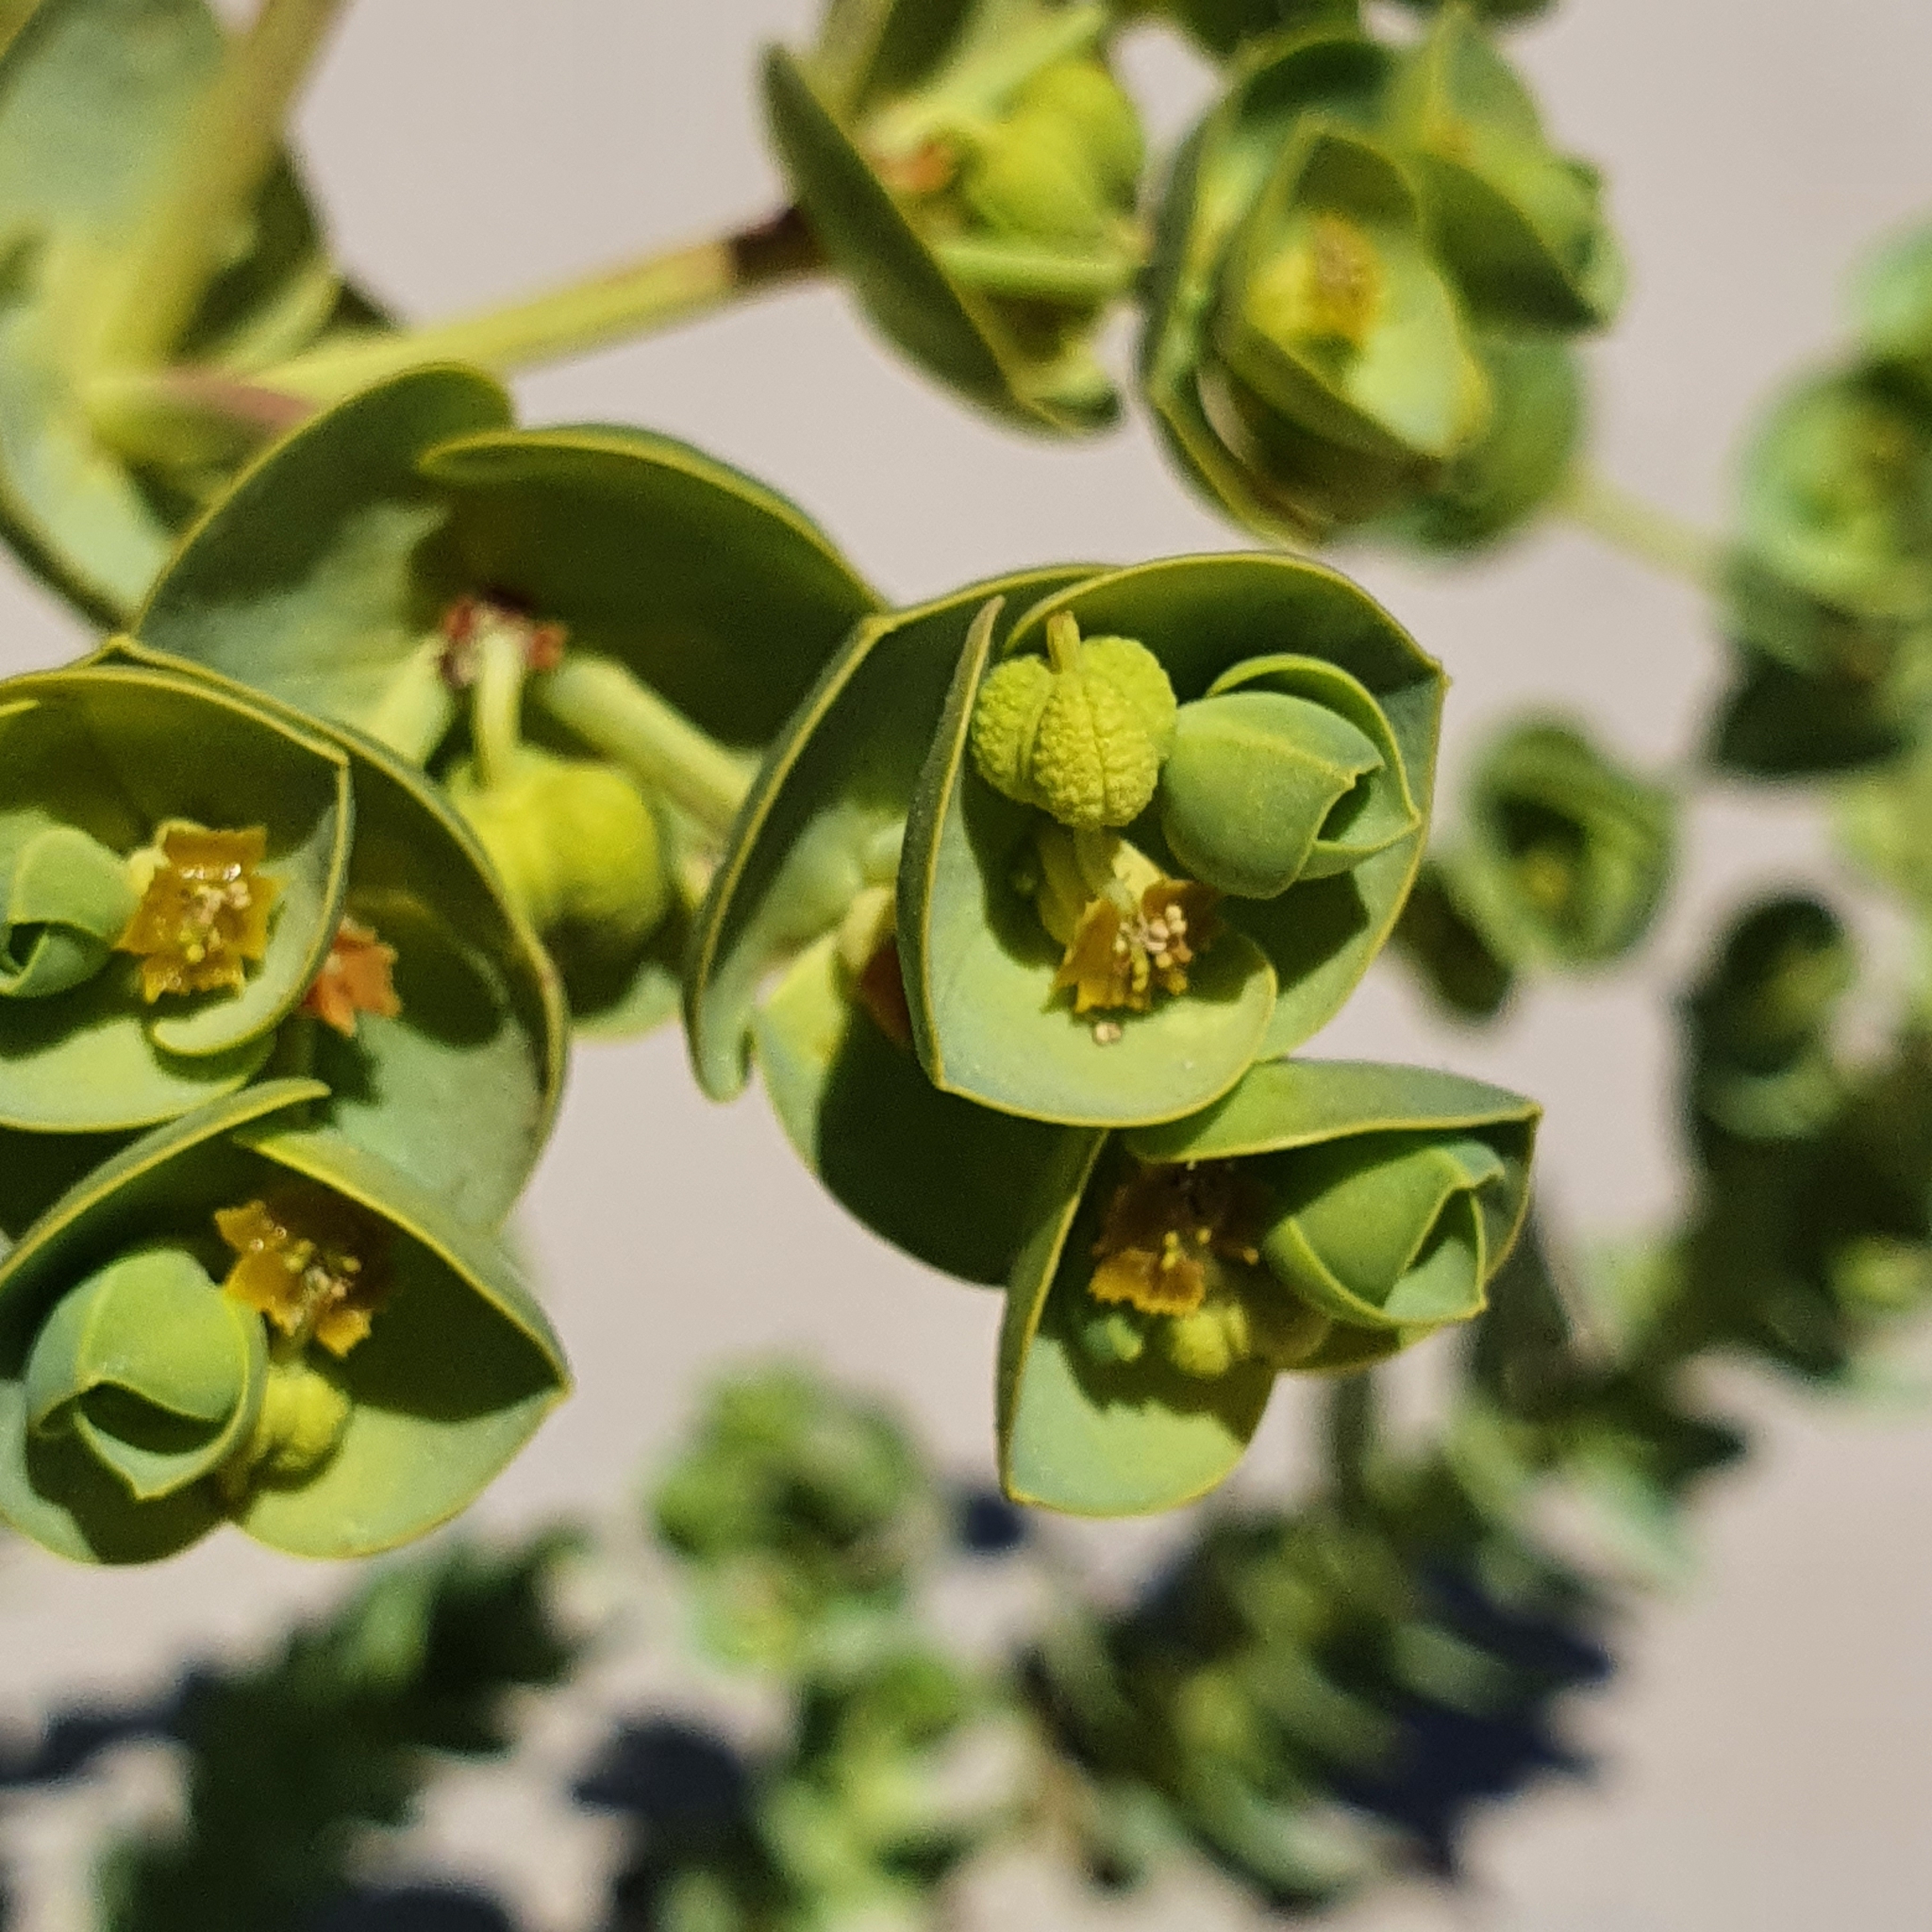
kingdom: Plantae
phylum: Tracheophyta
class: Magnoliopsida
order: Malpighiales
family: Euphorbiaceae
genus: Euphorbia
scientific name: Euphorbia paralias
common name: Sea spurge
